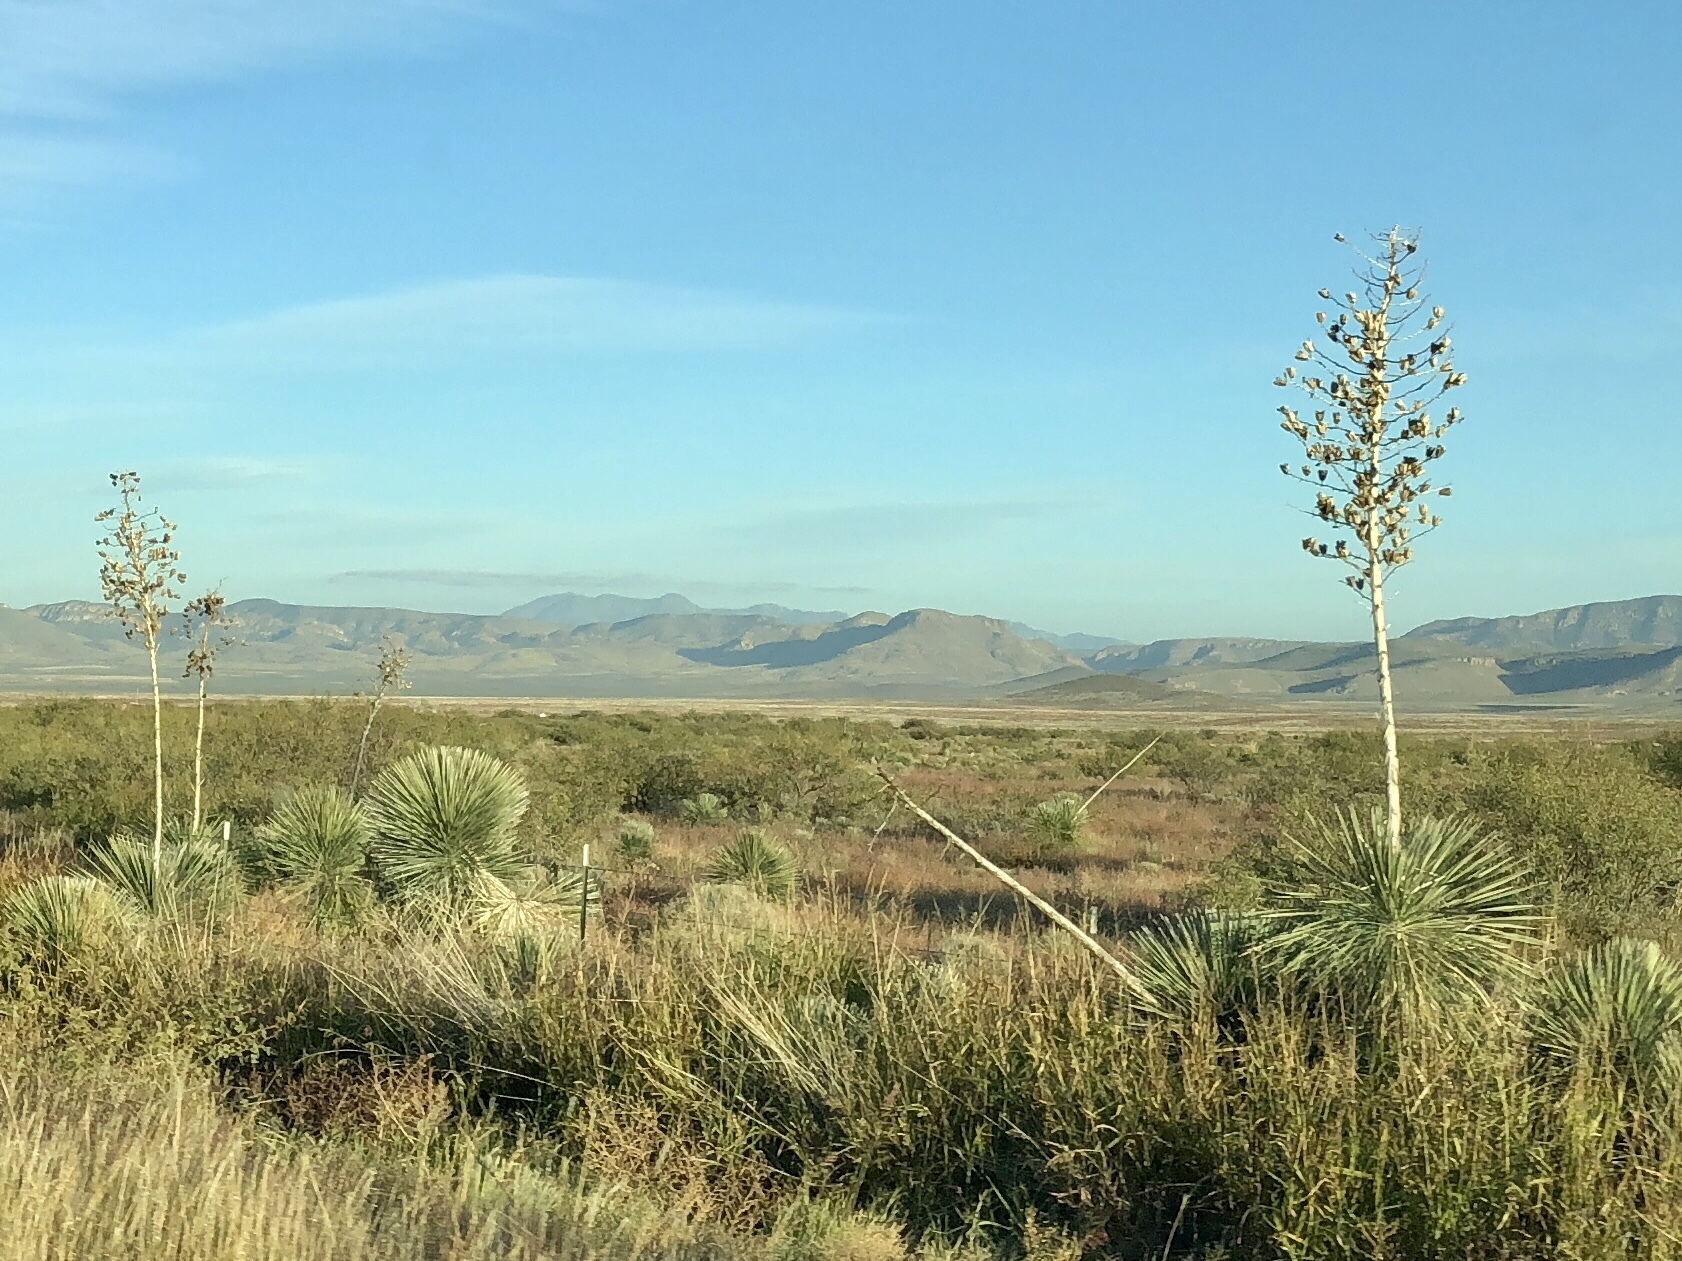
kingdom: Plantae
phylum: Tracheophyta
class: Liliopsida
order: Asparagales
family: Asparagaceae
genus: Yucca
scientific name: Yucca elata
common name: Palmella
